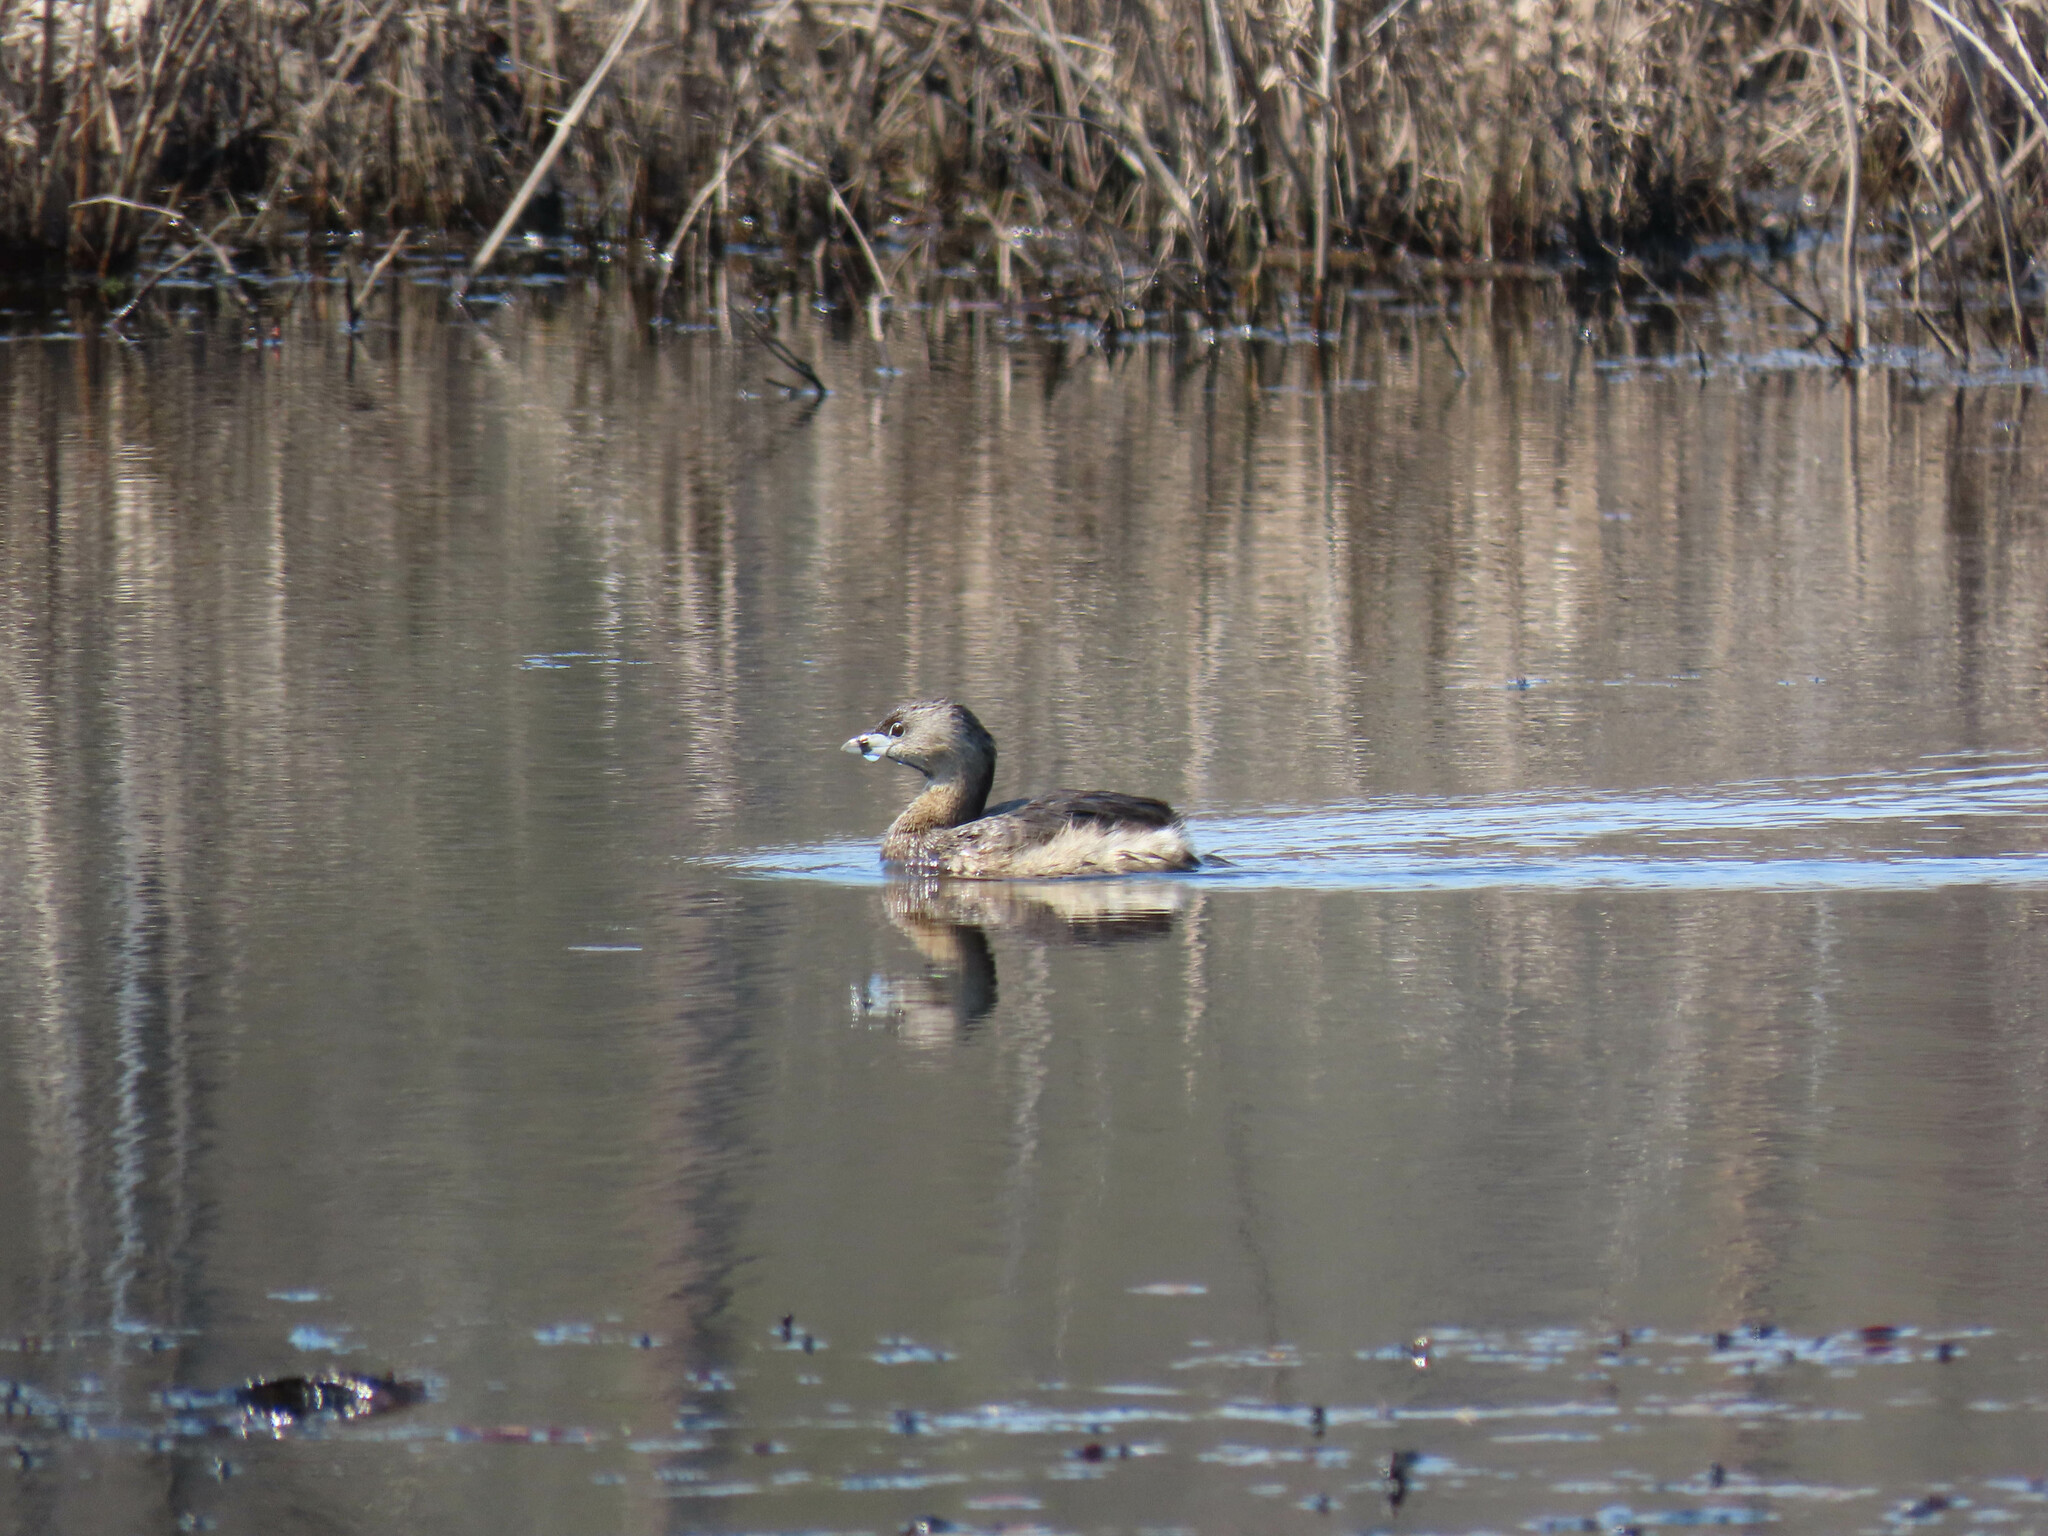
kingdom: Animalia
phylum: Chordata
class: Aves
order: Podicipediformes
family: Podicipedidae
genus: Podilymbus
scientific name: Podilymbus podiceps
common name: Pied-billed grebe
